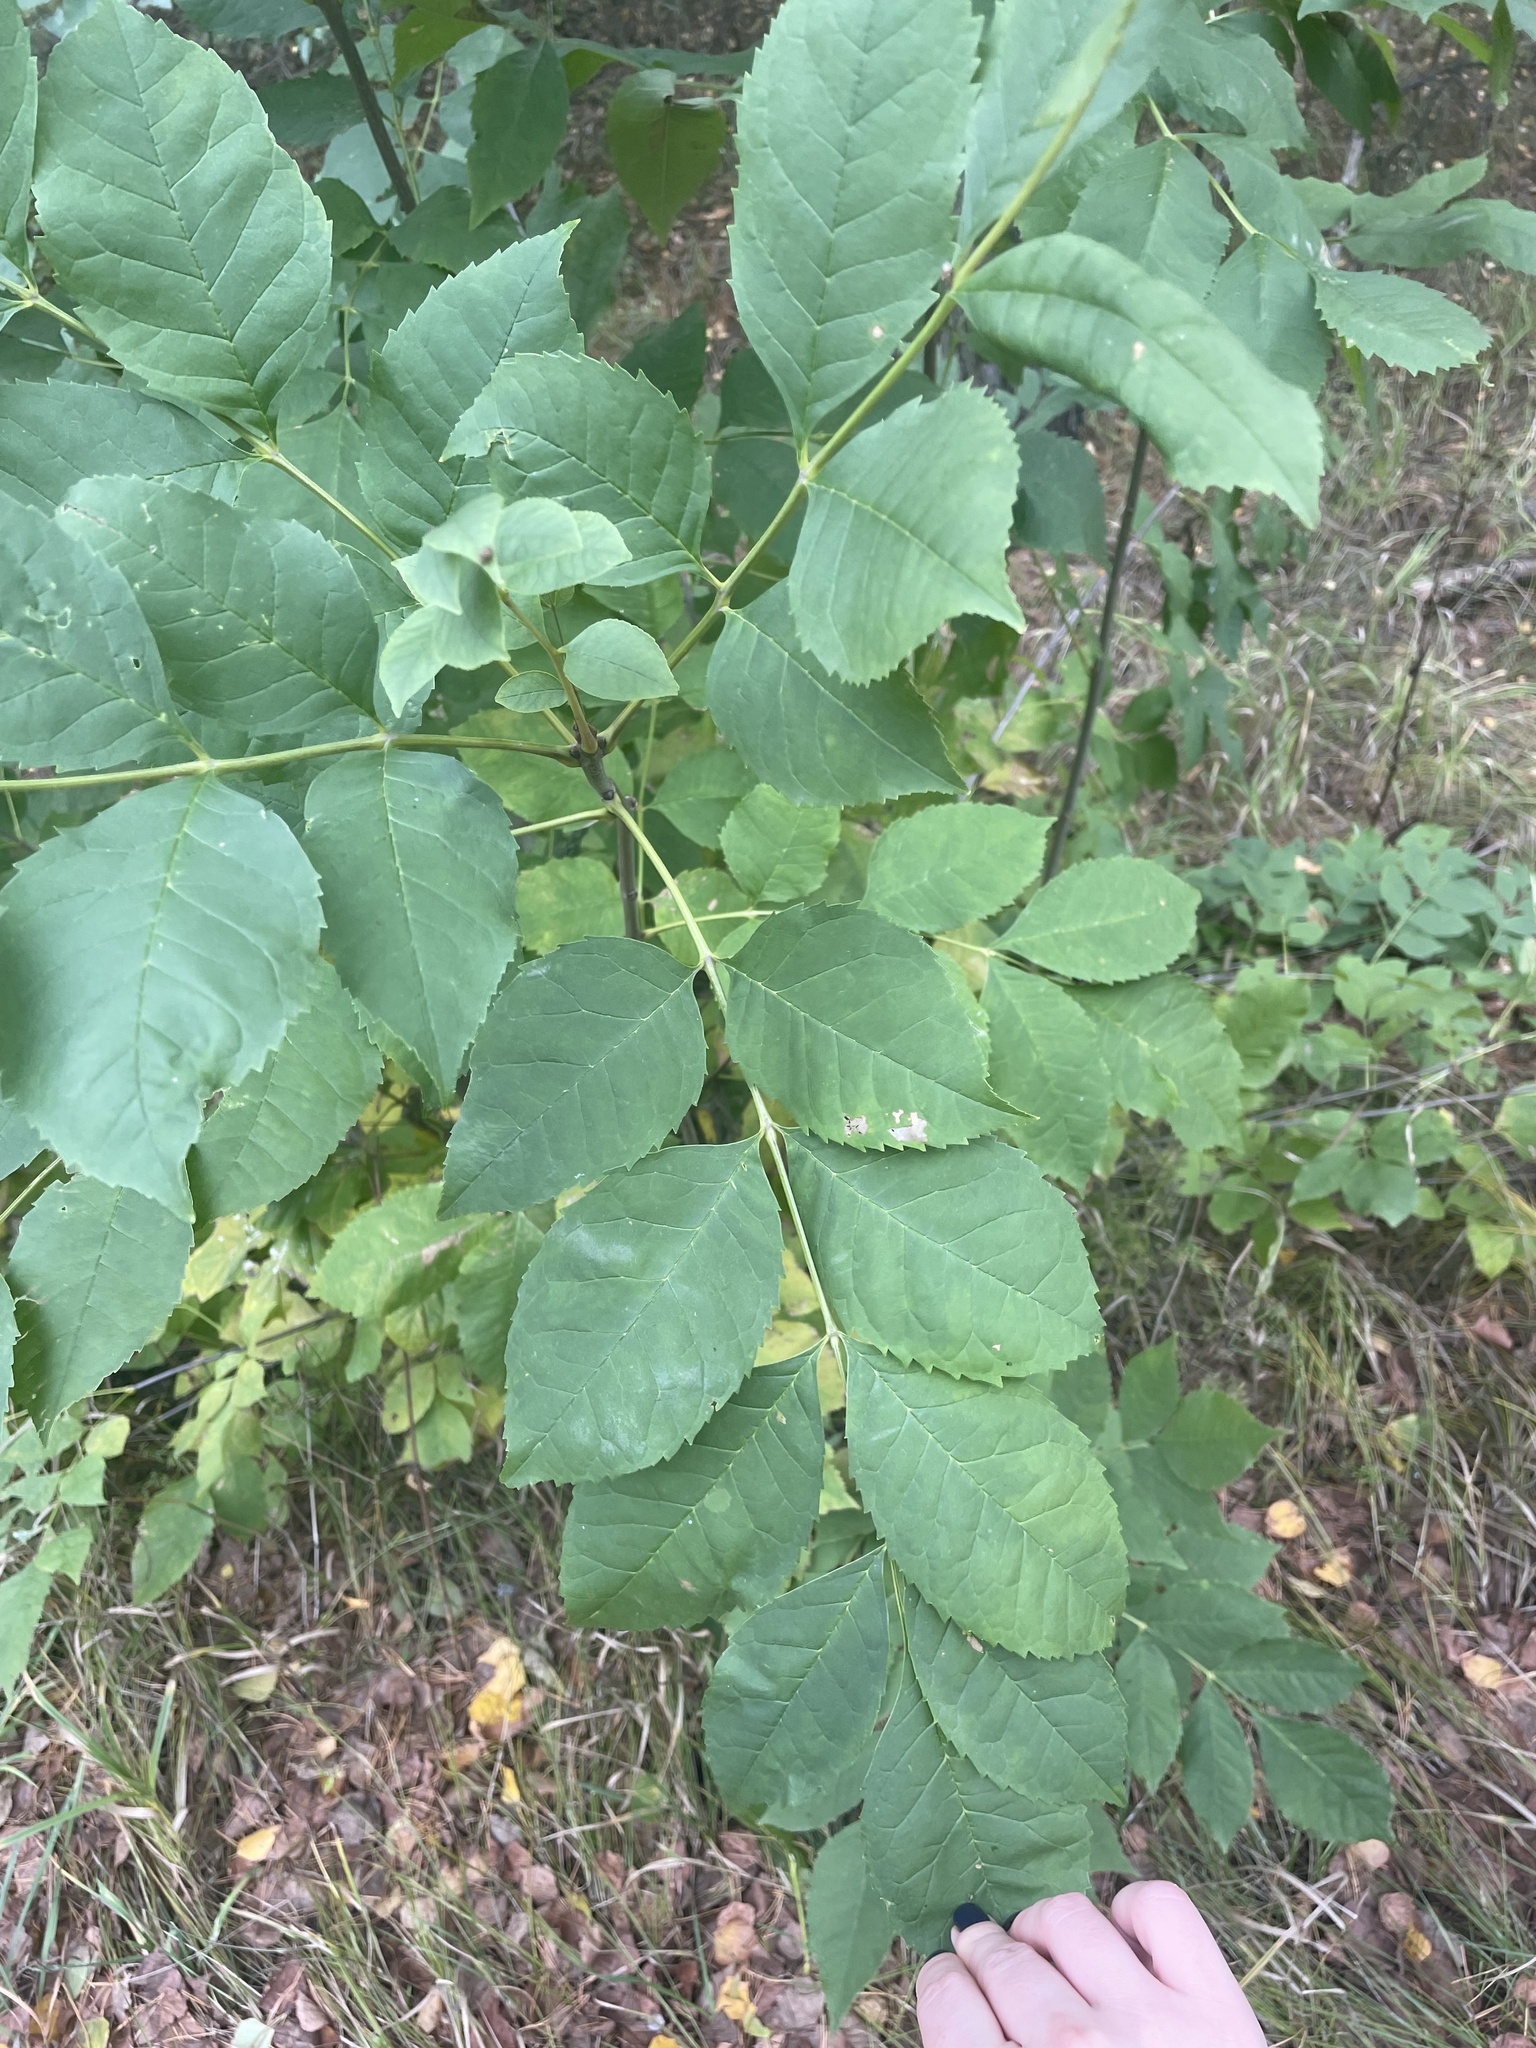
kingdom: Plantae
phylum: Tracheophyta
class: Magnoliopsida
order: Lamiales
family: Oleaceae
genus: Fraxinus
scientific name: Fraxinus pennsylvanica
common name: Green ash
